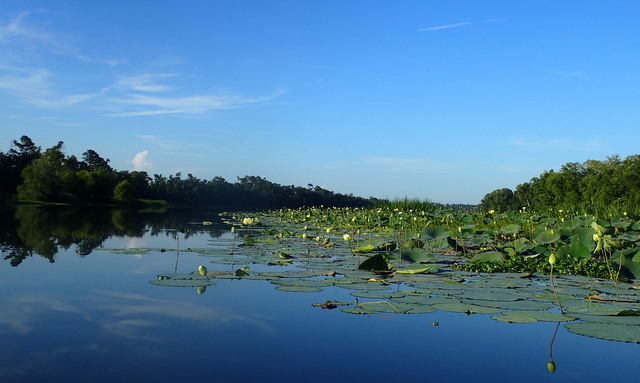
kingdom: Plantae
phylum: Tracheophyta
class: Magnoliopsida
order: Proteales
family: Nelumbonaceae
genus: Nelumbo
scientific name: Nelumbo lutea
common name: American lotus
